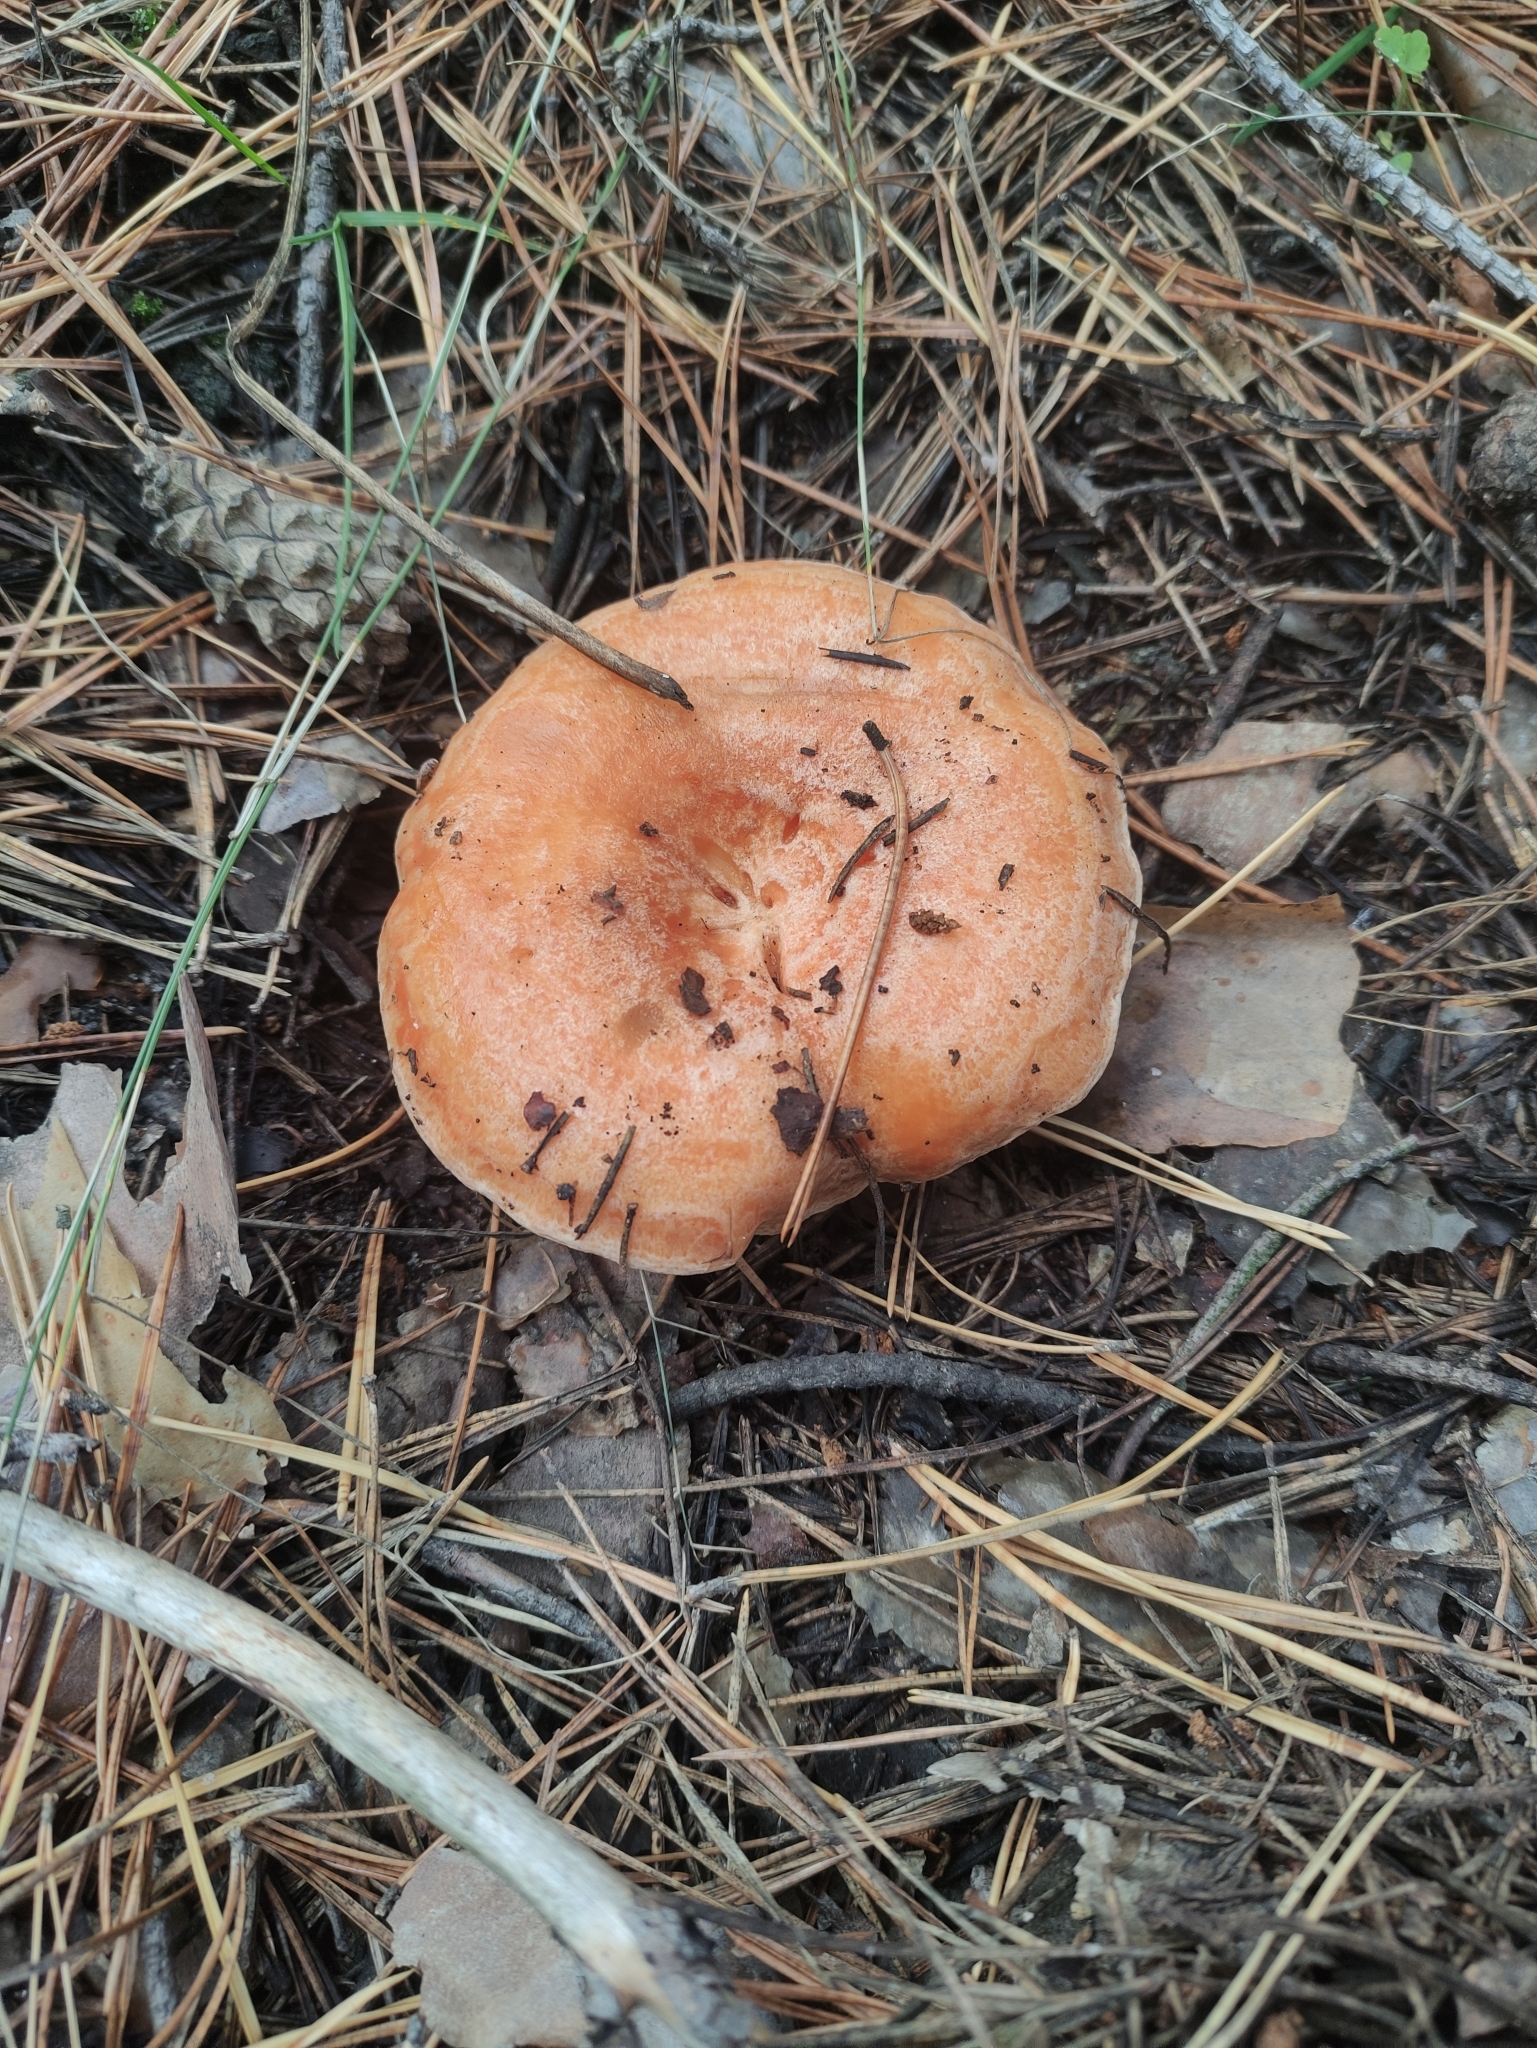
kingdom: Fungi
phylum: Basidiomycota
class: Agaricomycetes
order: Russulales
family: Russulaceae
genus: Lactarius
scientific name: Lactarius deliciosus
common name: Saffron milk-cap
